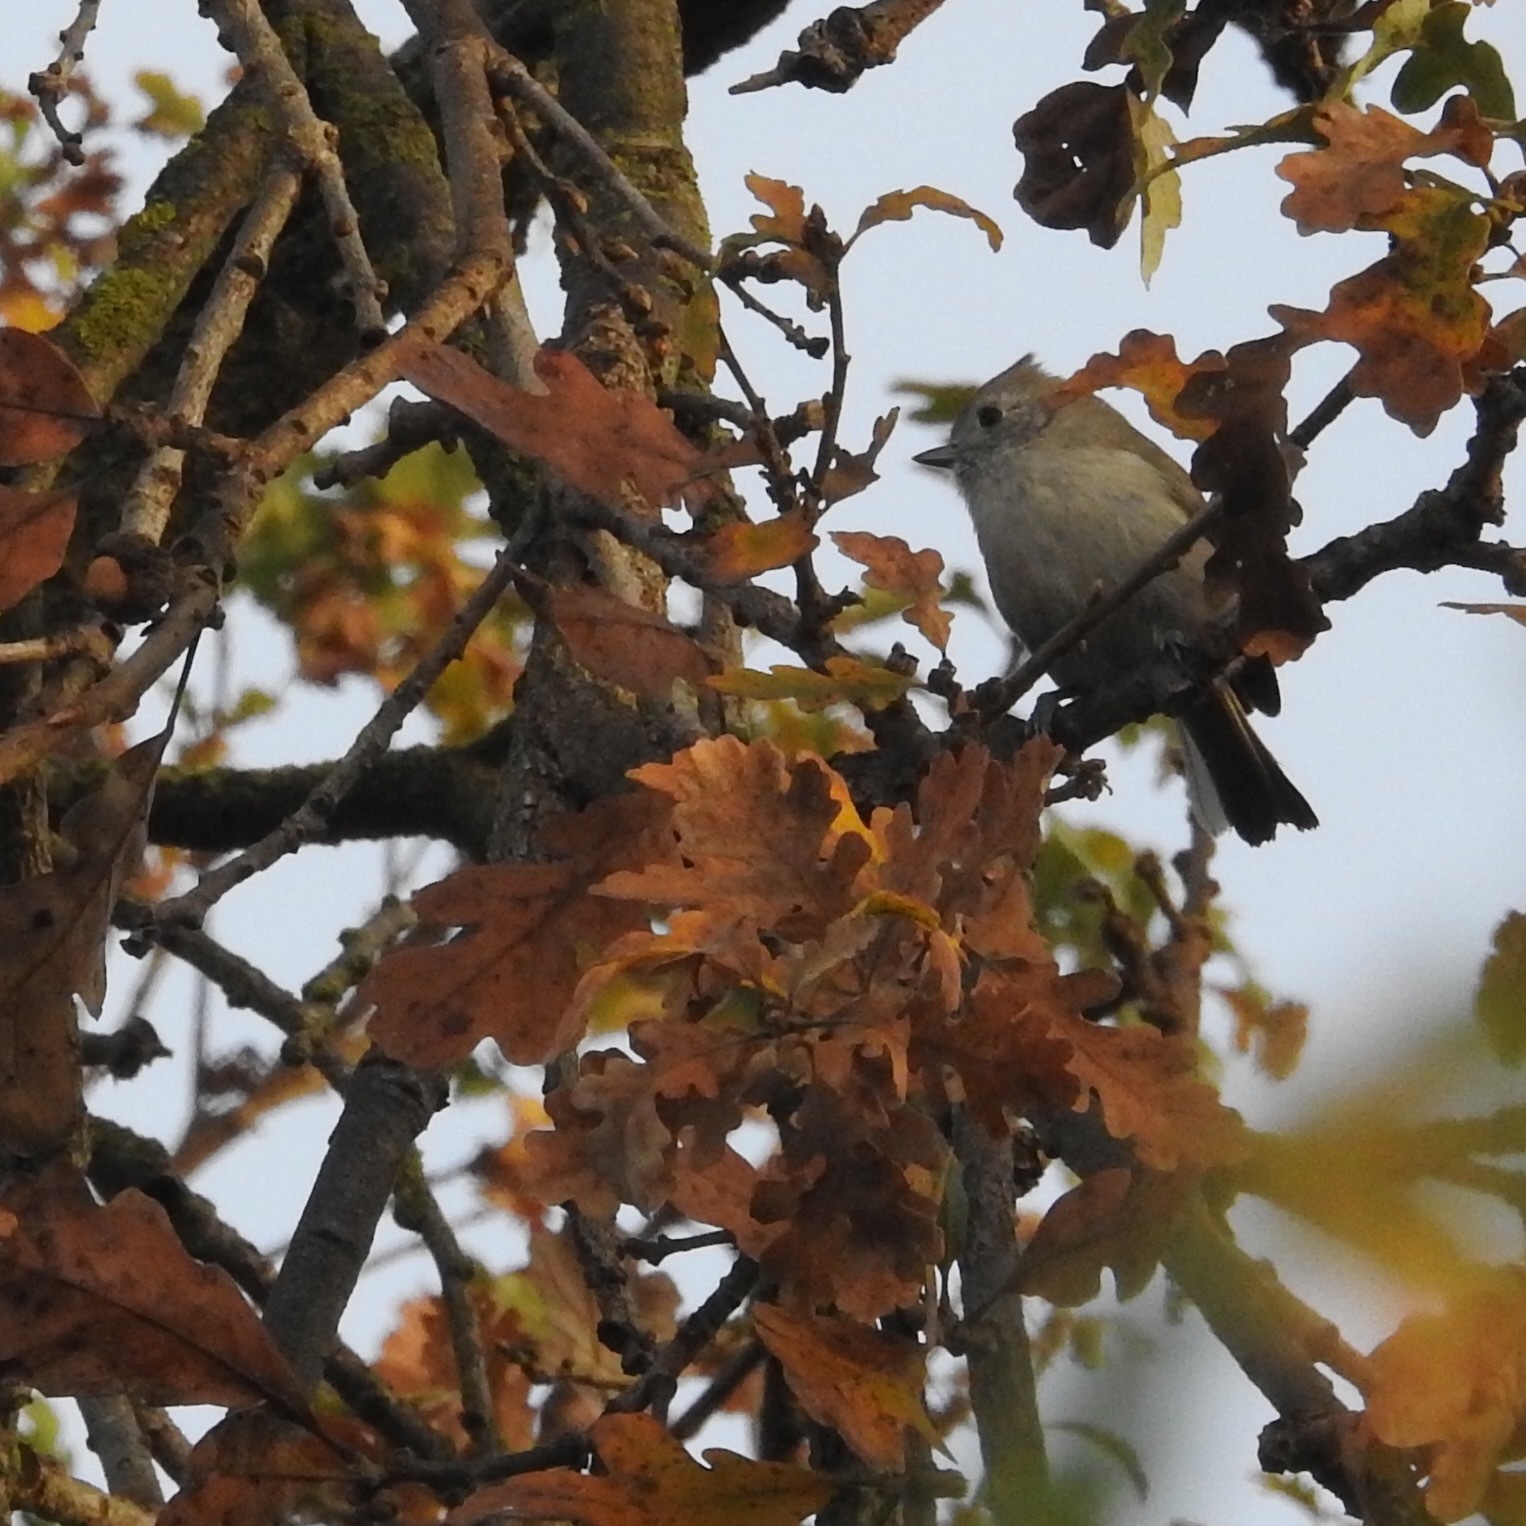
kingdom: Animalia
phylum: Chordata
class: Aves
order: Passeriformes
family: Paridae
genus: Baeolophus
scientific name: Baeolophus inornatus
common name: Oak titmouse
